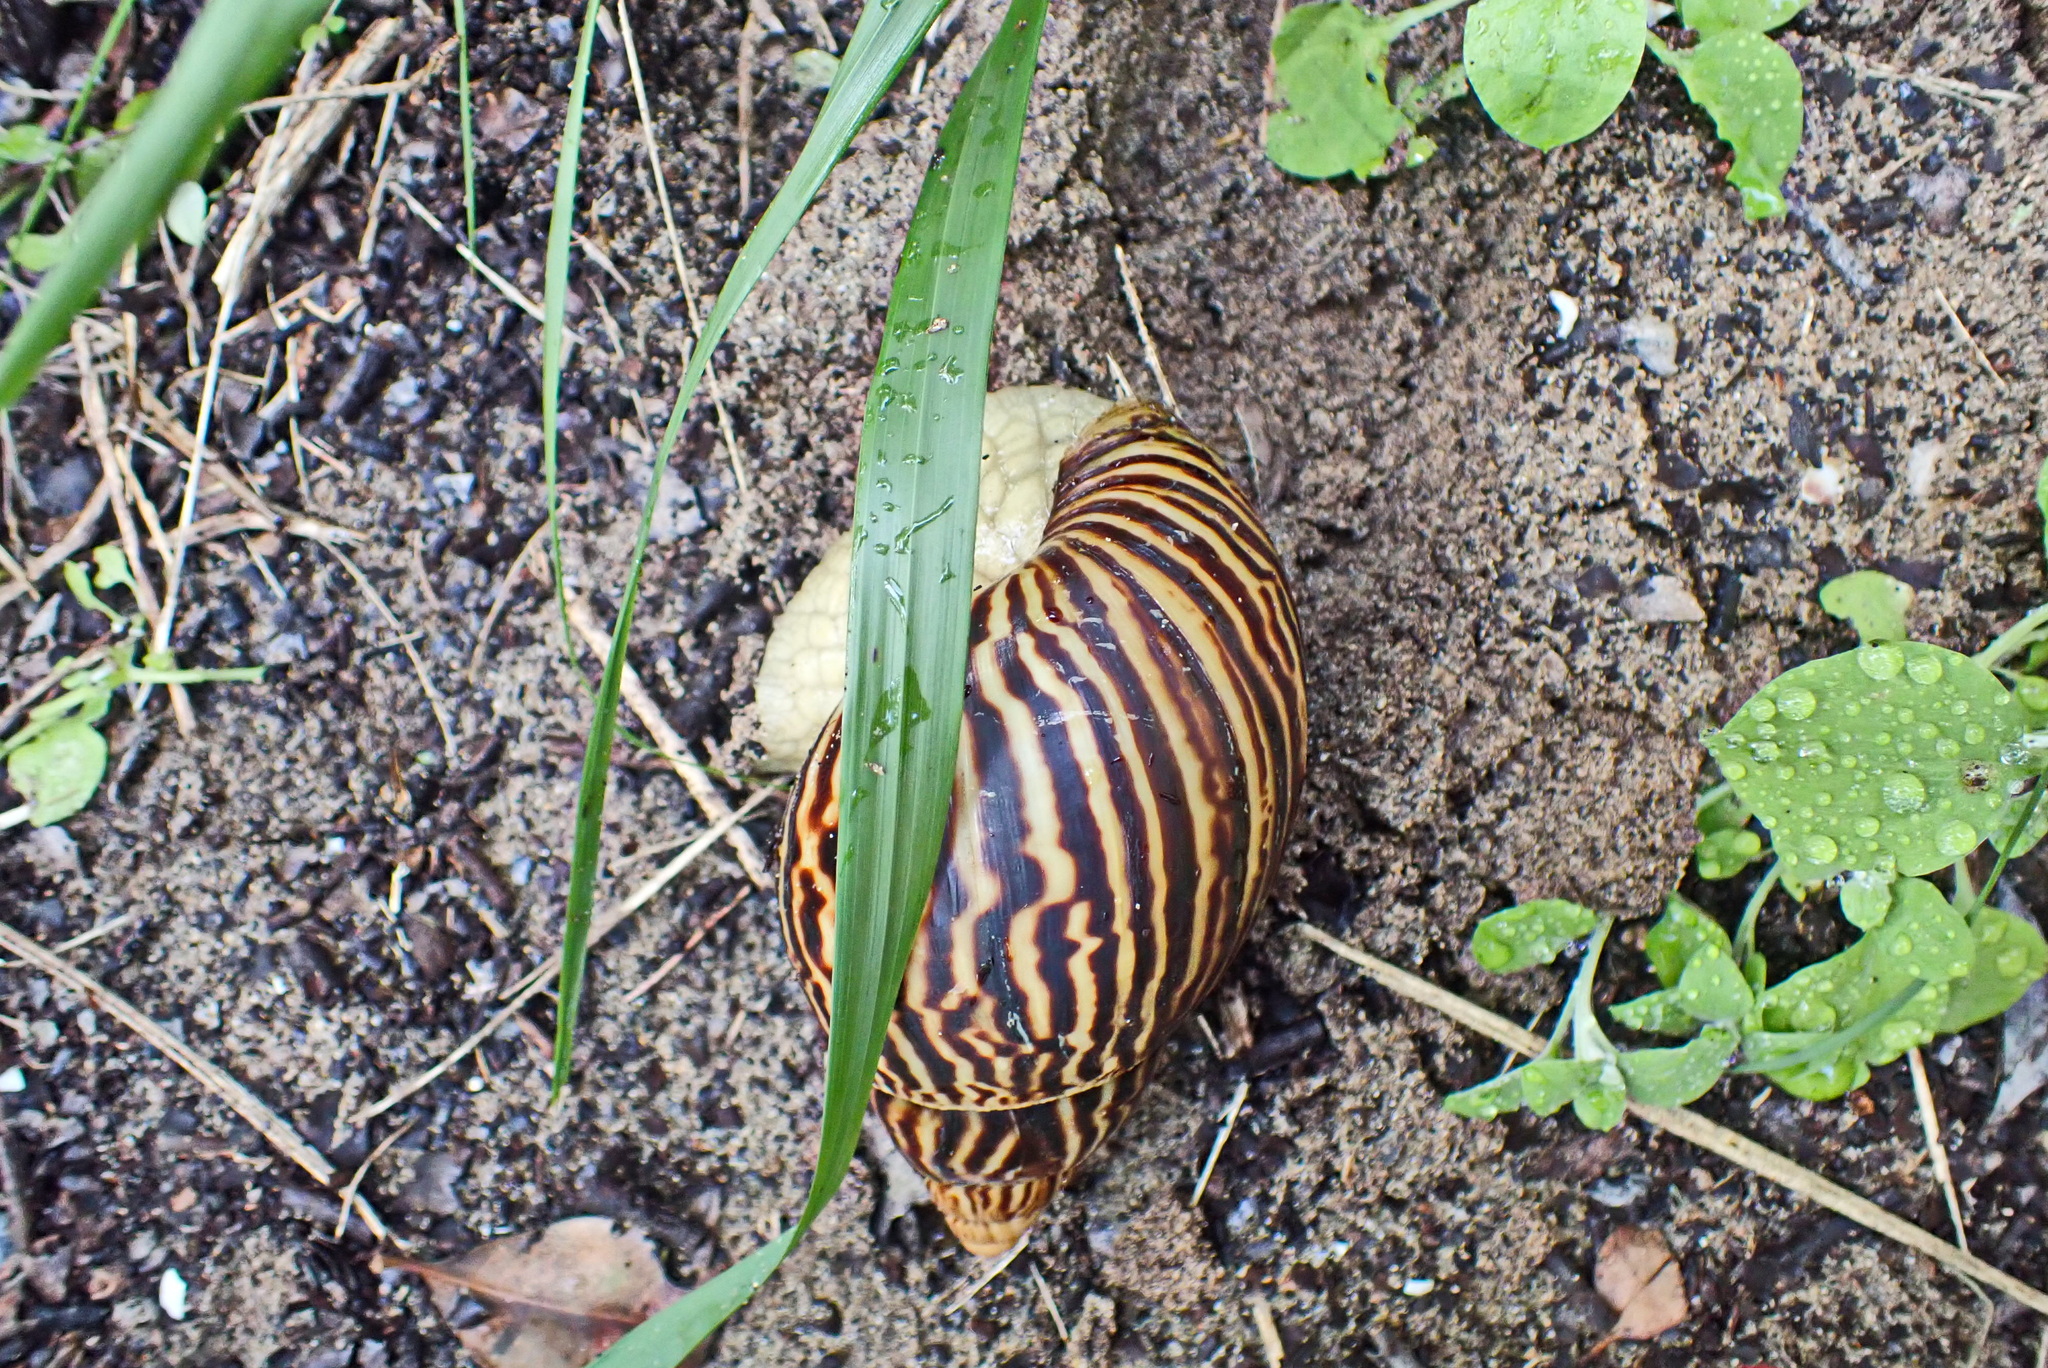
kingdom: Animalia
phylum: Mollusca
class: Gastropoda
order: Stylommatophora
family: Achatinidae
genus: Cochlitoma
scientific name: Cochlitoma zebra
